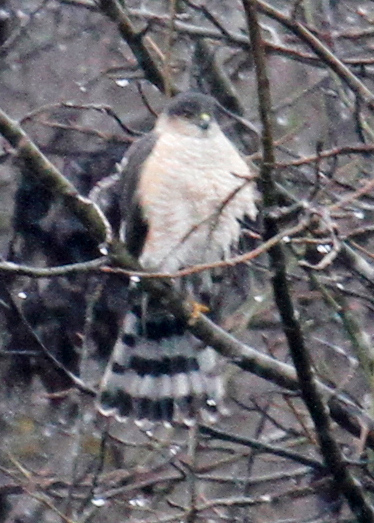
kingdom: Animalia
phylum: Chordata
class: Aves
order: Accipitriformes
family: Accipitridae
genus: Accipiter
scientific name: Accipiter cooperii
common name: Cooper's hawk
